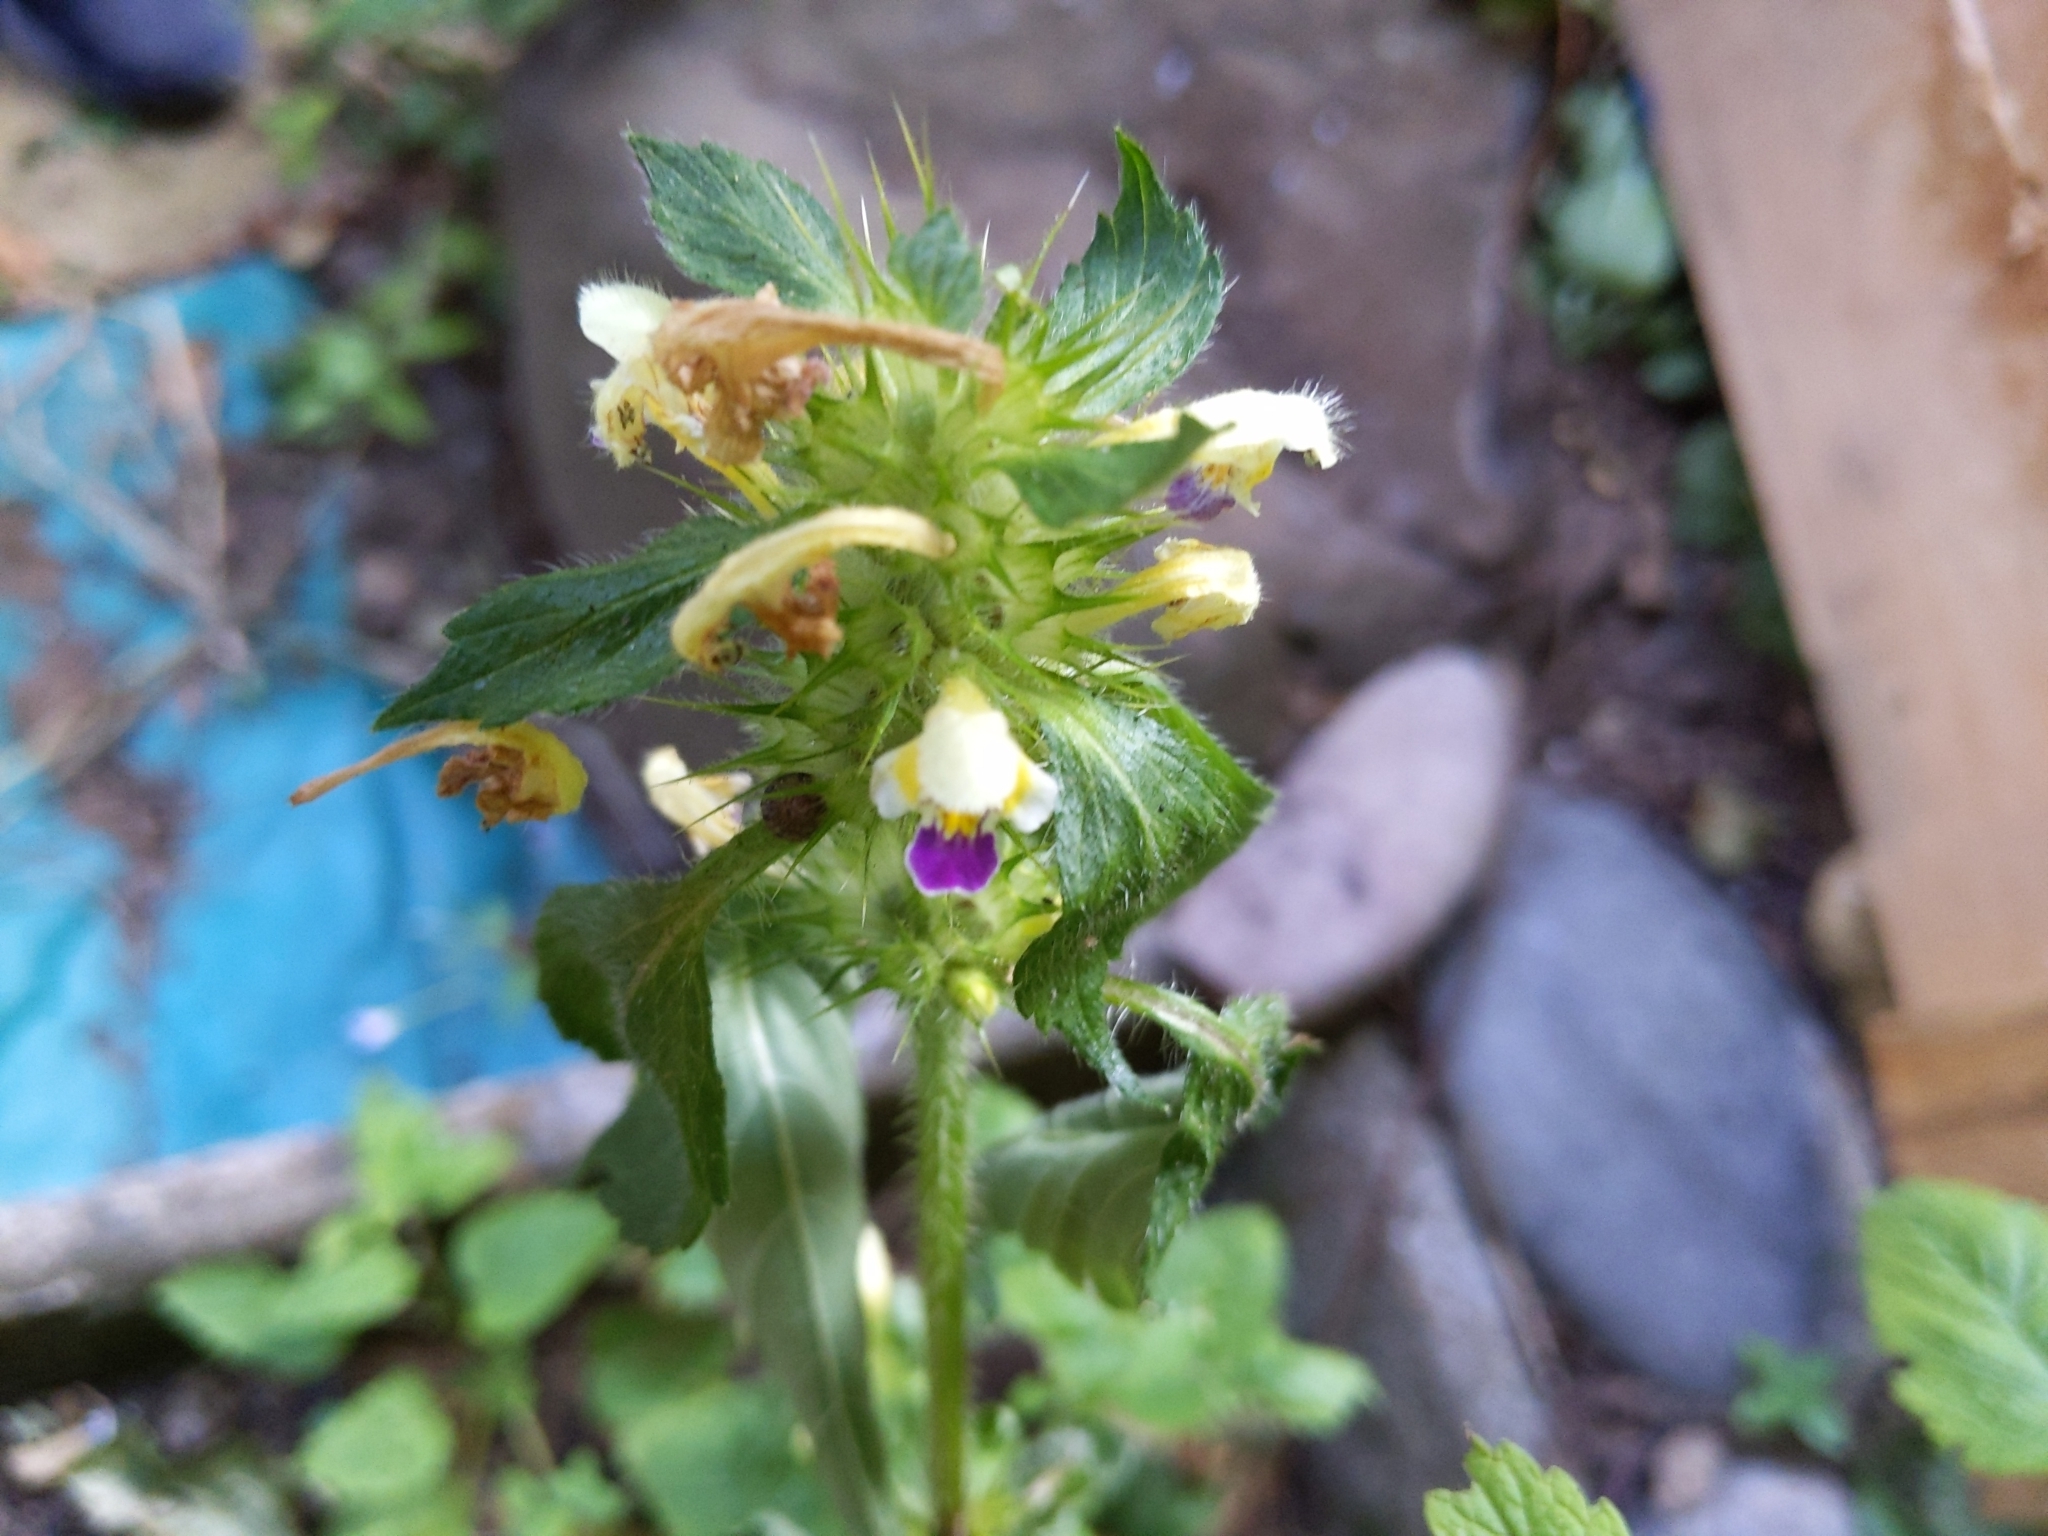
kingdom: Plantae
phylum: Tracheophyta
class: Magnoliopsida
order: Lamiales
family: Lamiaceae
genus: Galeopsis
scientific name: Galeopsis speciosa
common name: Large-flowered hemp-nettle
